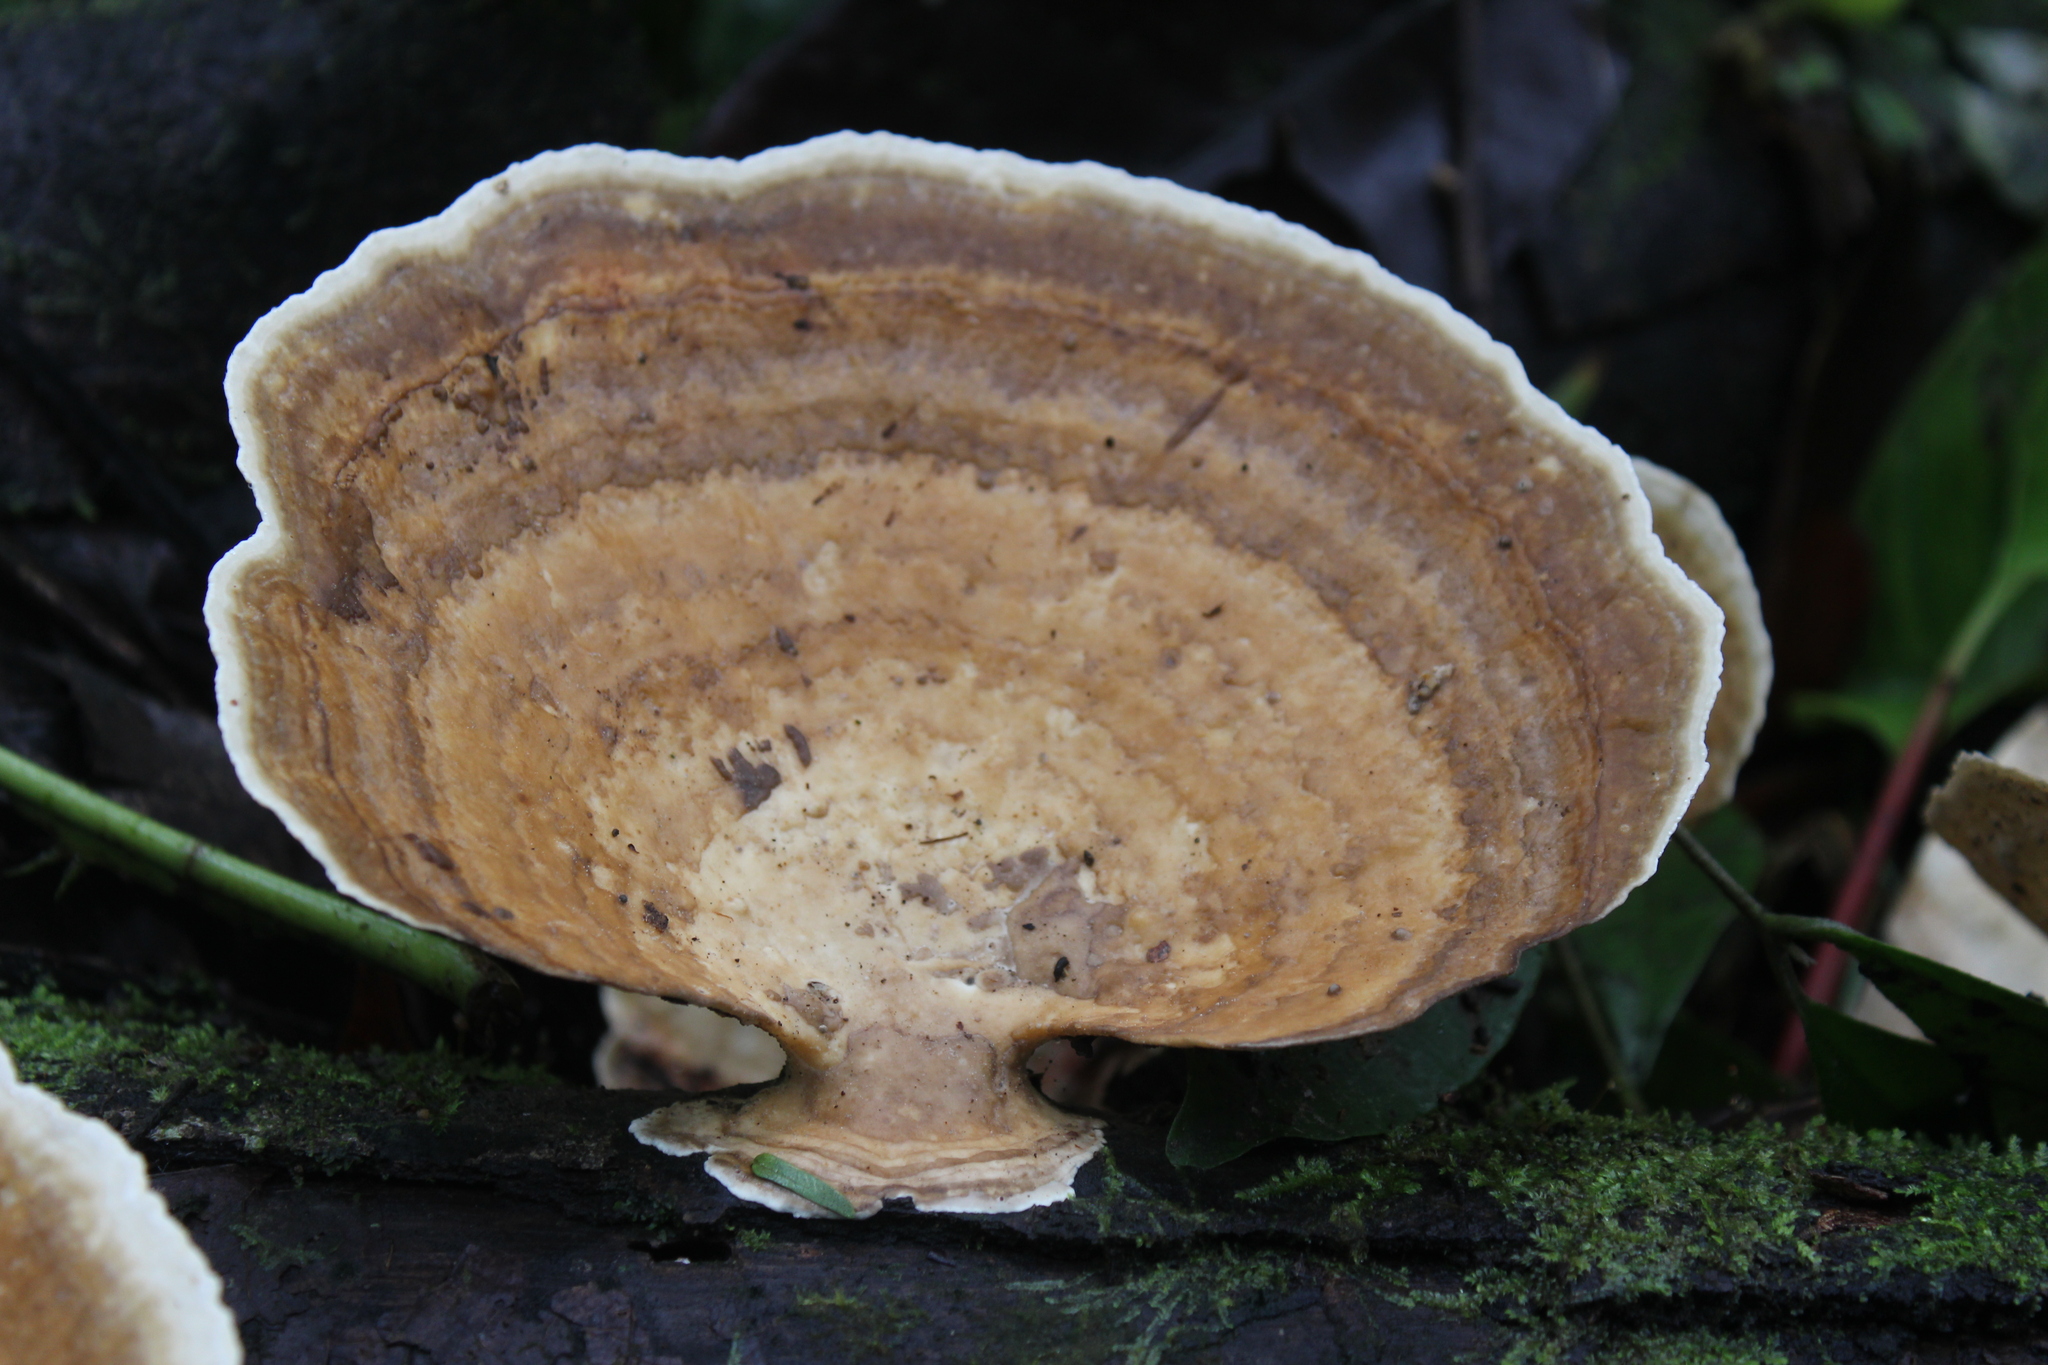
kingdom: Fungi
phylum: Basidiomycota
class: Agaricomycetes
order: Polyporales
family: Polyporaceae
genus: Trametes
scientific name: Trametes cubensis
